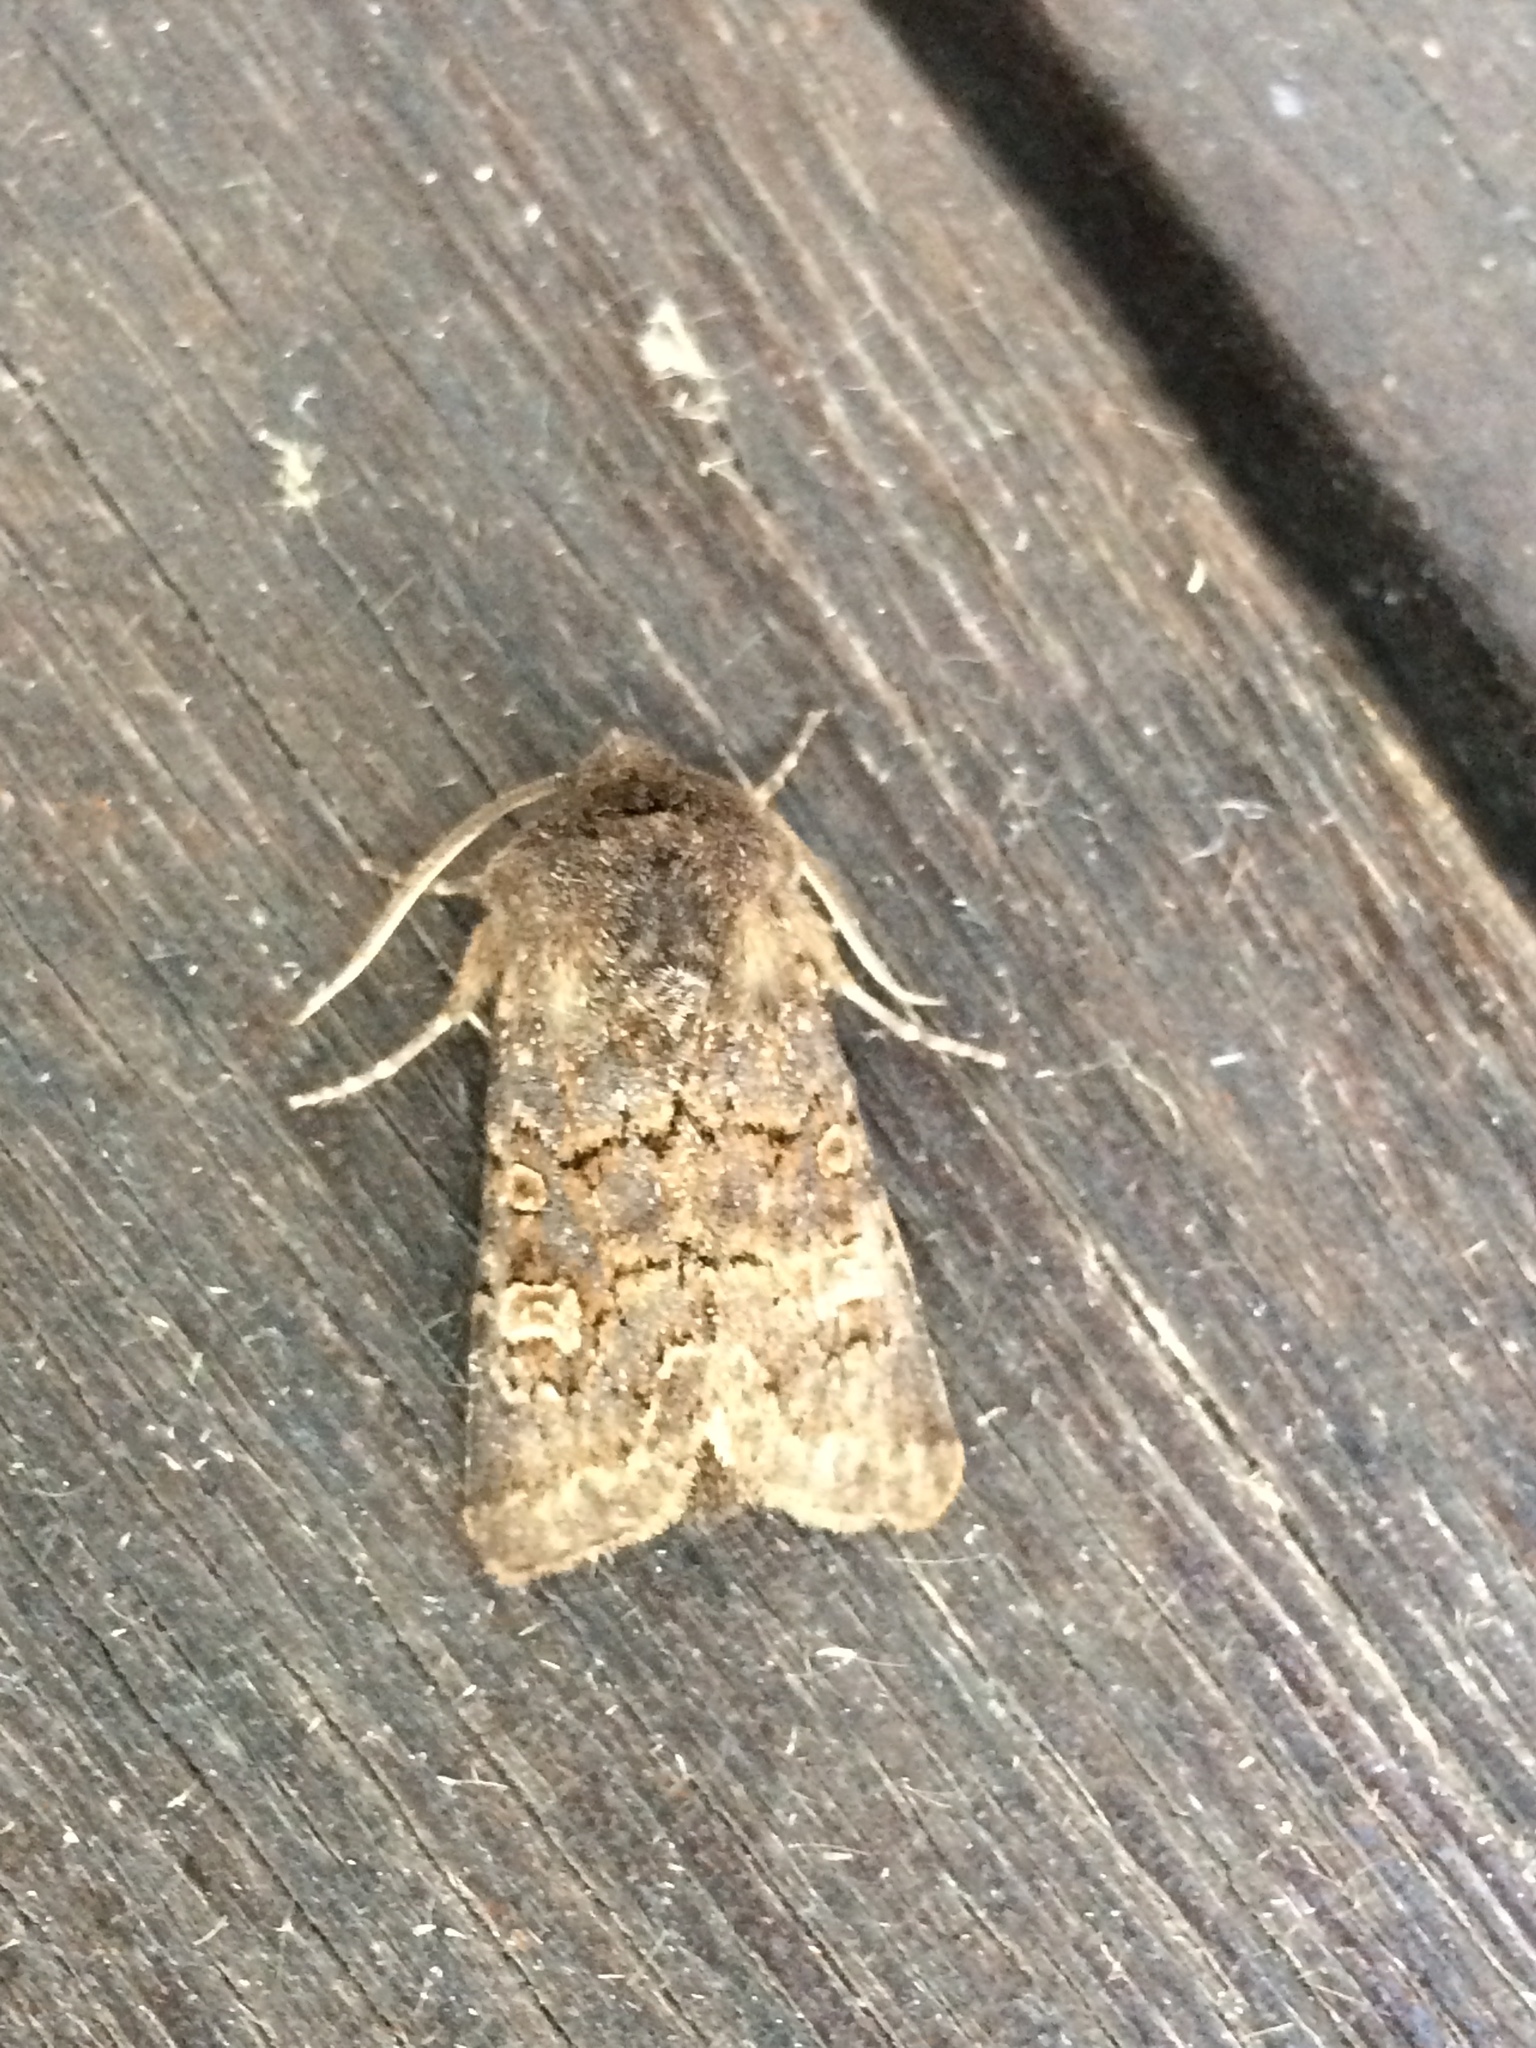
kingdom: Animalia
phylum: Arthropoda
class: Insecta
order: Lepidoptera
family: Noctuidae
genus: Tholera
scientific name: Tholera cespitis
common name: Hedge rustic
